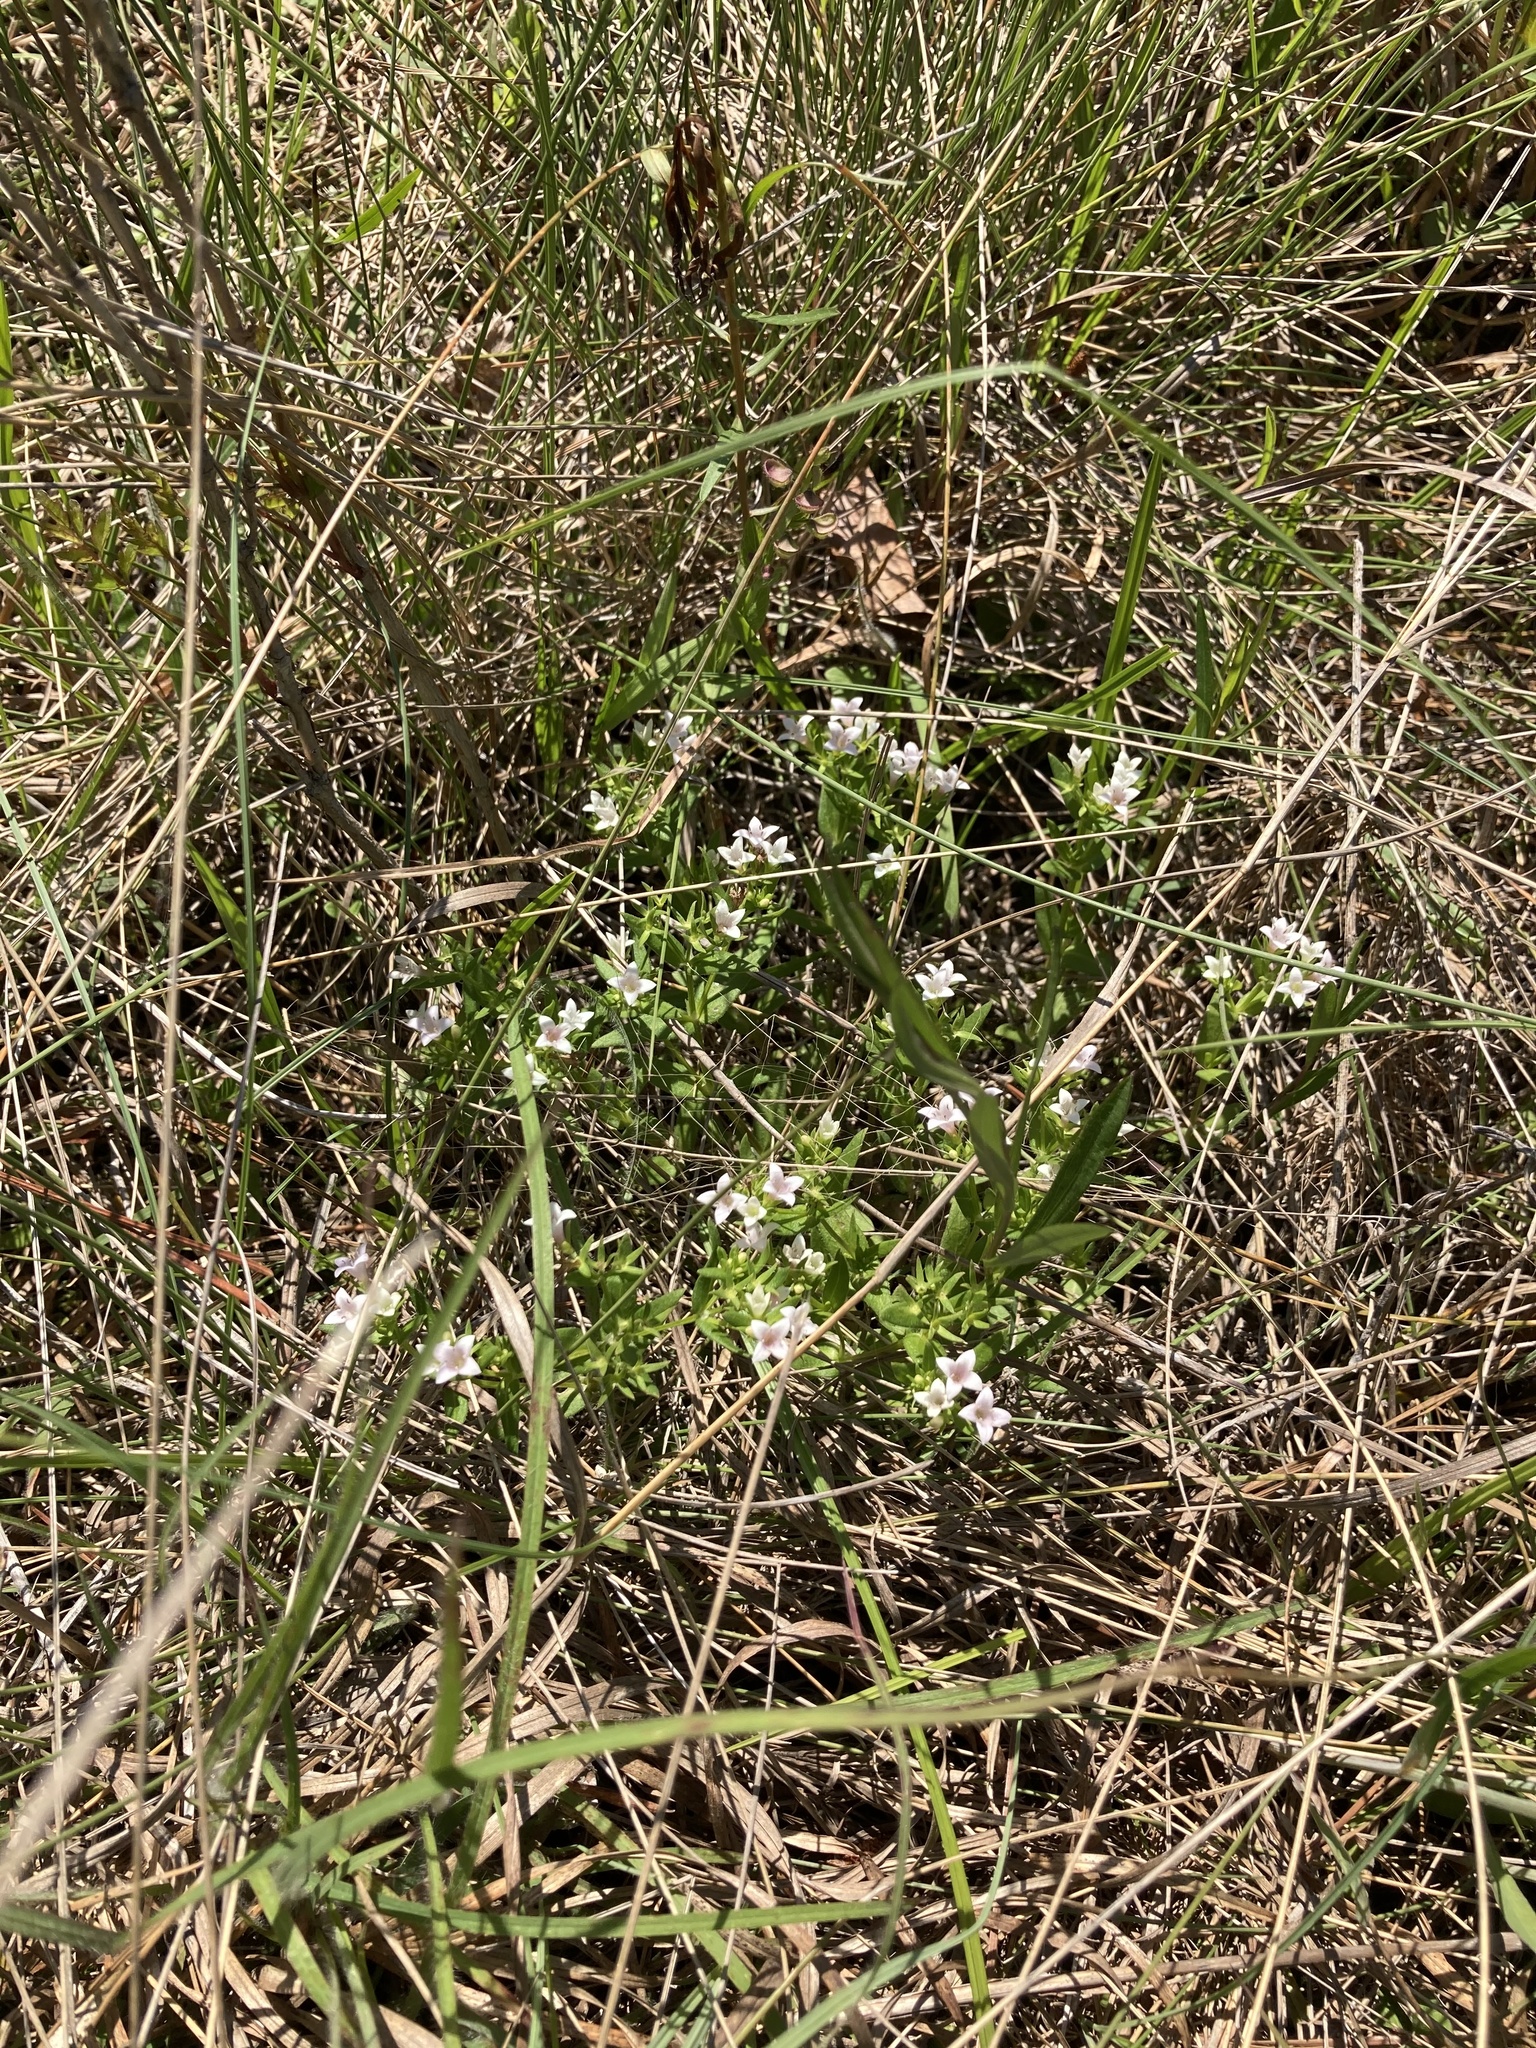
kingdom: Plantae
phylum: Tracheophyta
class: Magnoliopsida
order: Gentianales
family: Rubiaceae
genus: Houstonia
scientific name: Houstonia purpurea
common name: Summer bluet
